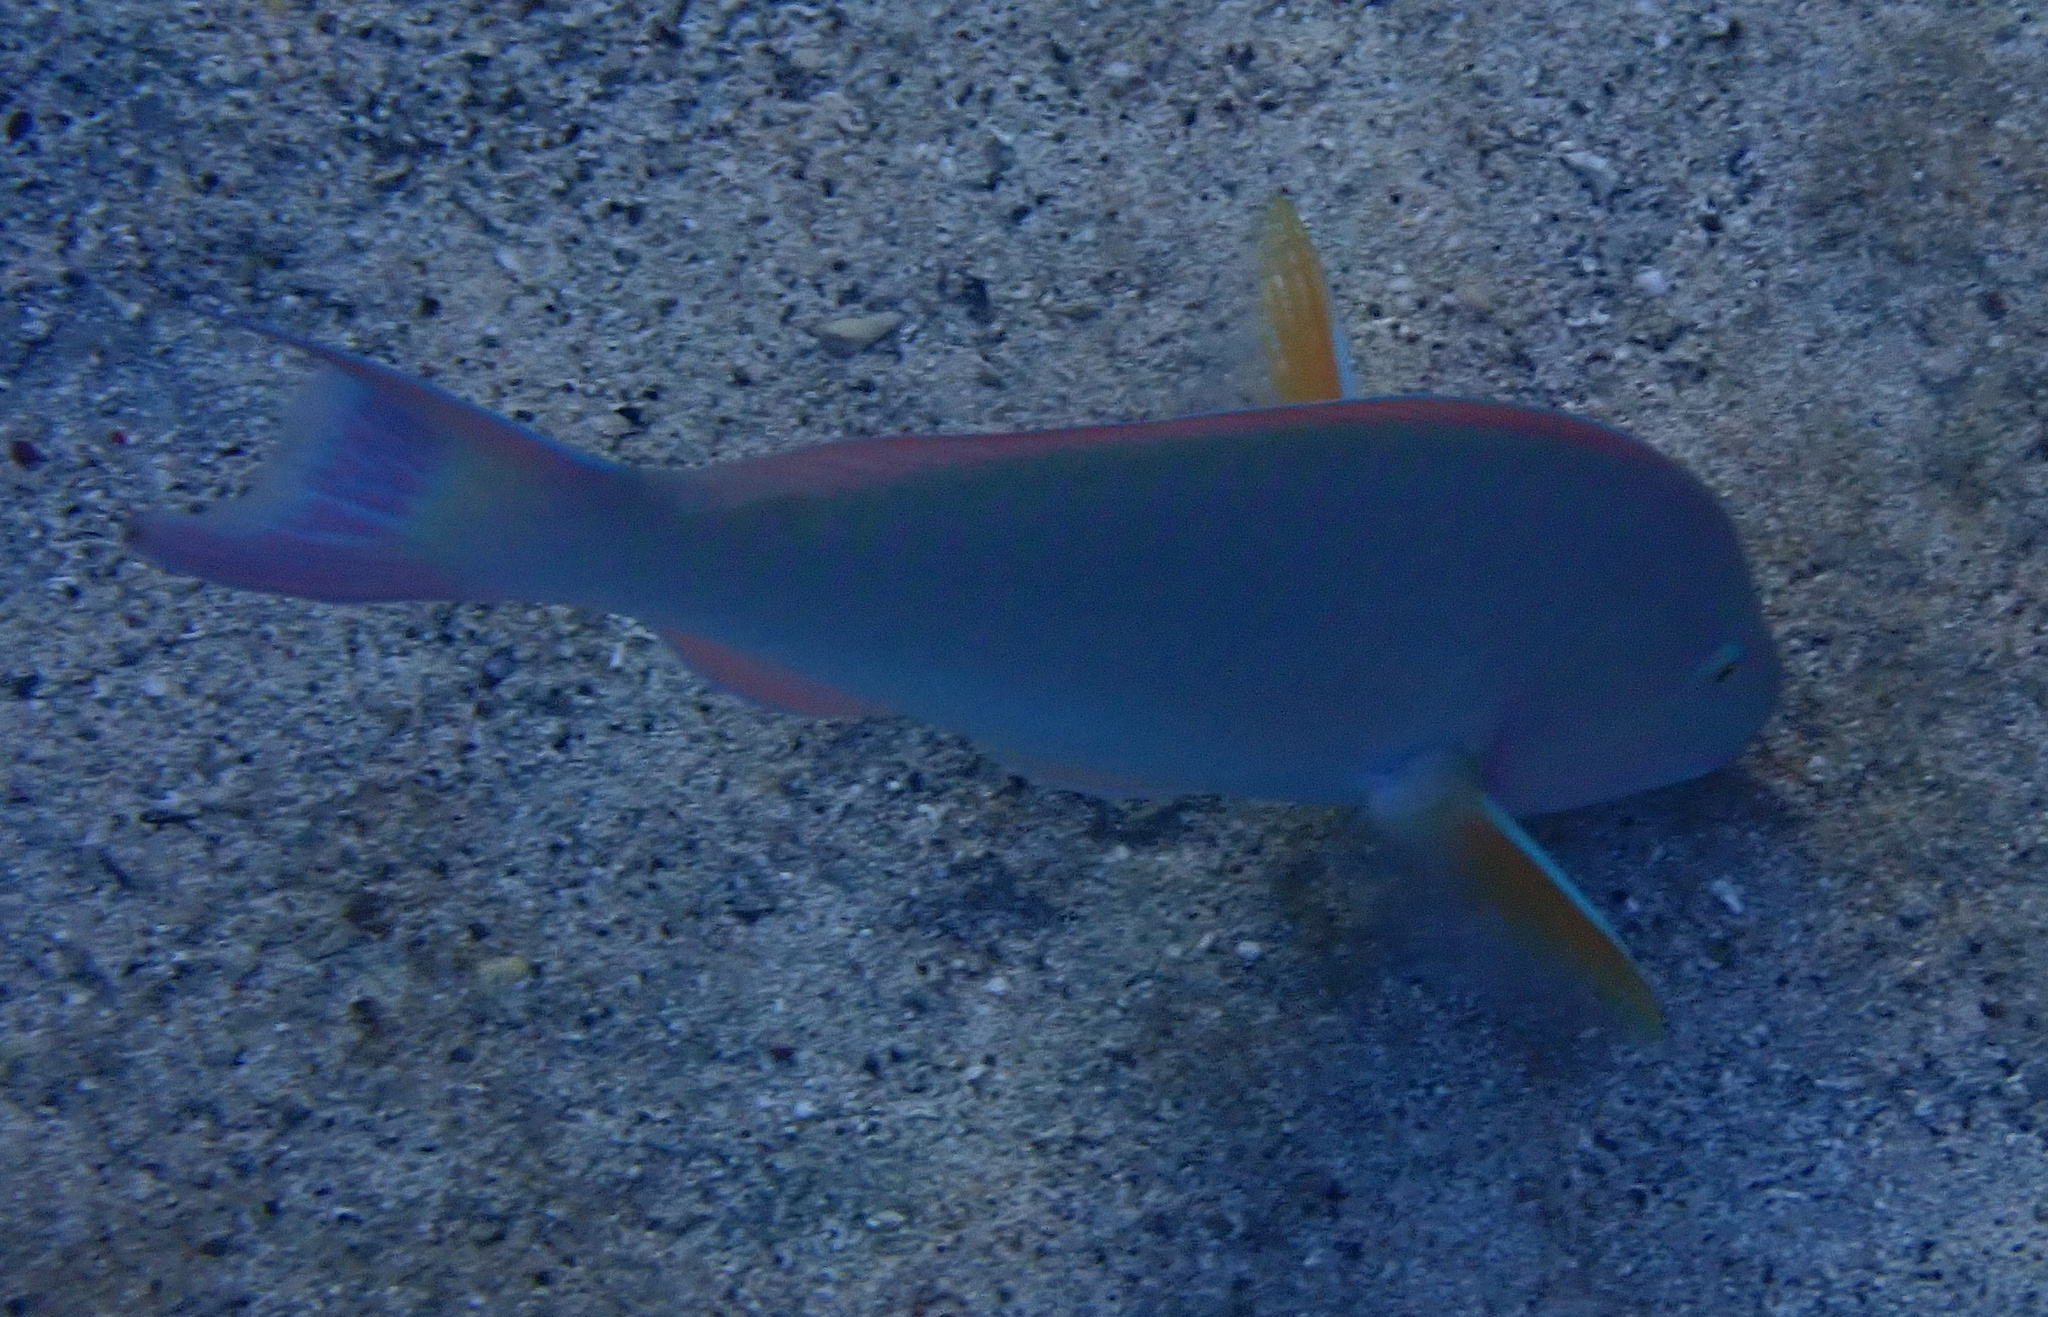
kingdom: Animalia
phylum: Chordata
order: Perciformes
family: Scaridae
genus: Hipposcarus
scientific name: Hipposcarus harid
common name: Candelamoa parrotfish
